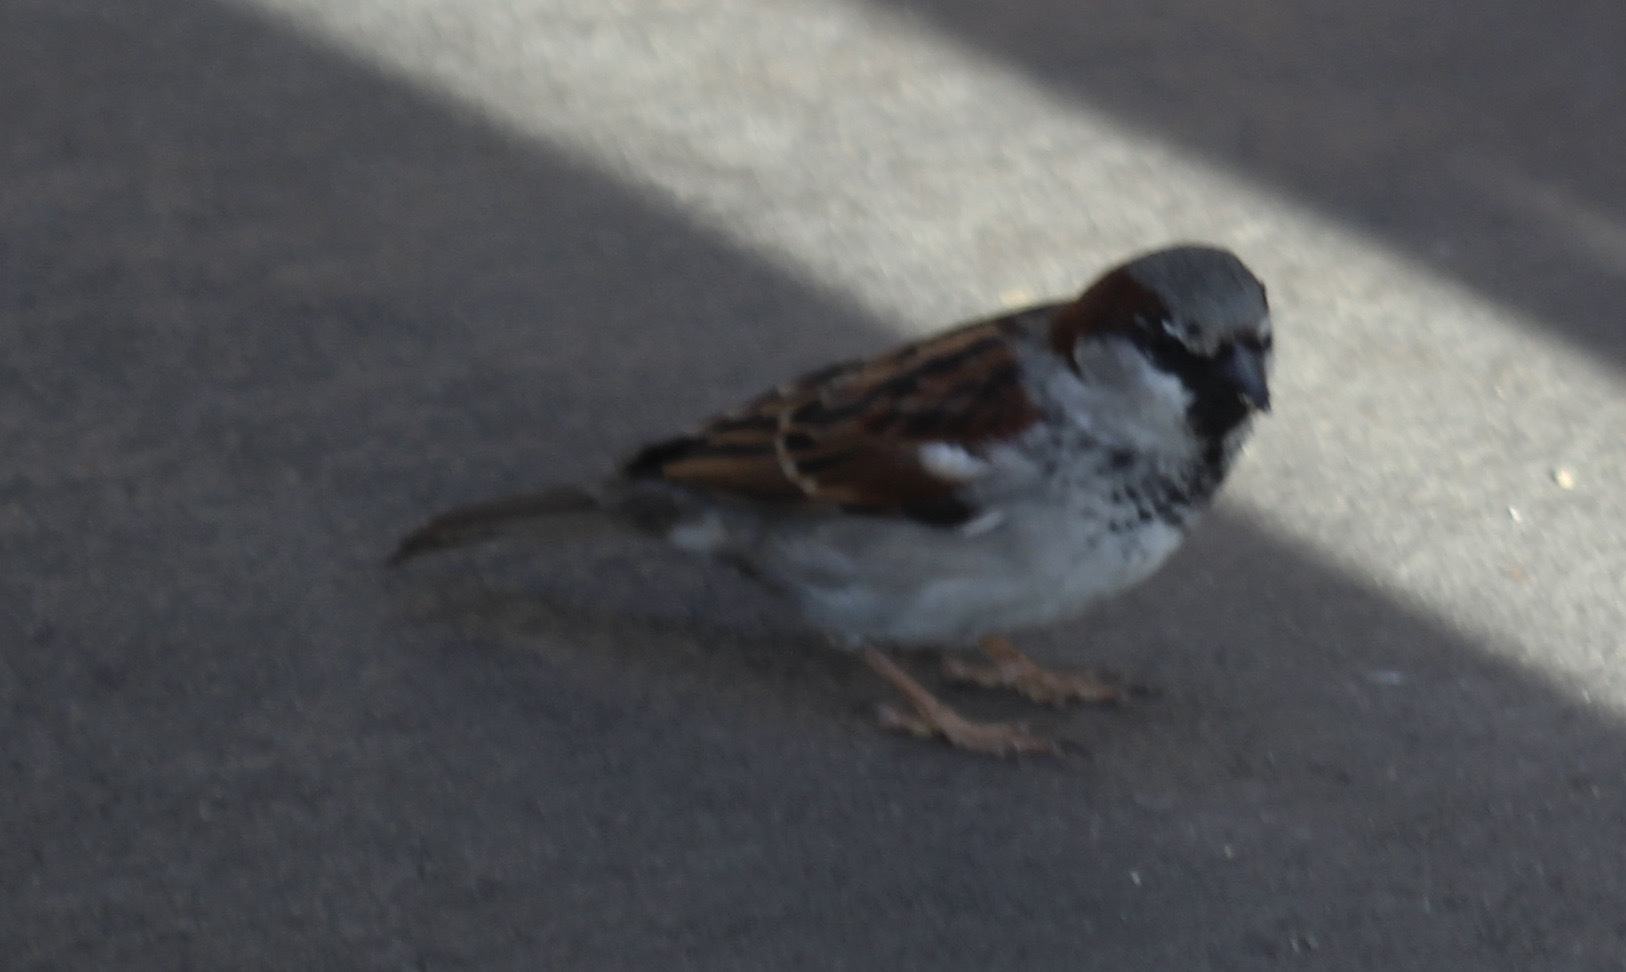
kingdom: Animalia
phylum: Chordata
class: Aves
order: Passeriformes
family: Passeridae
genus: Passer
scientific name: Passer domesticus
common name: House sparrow
